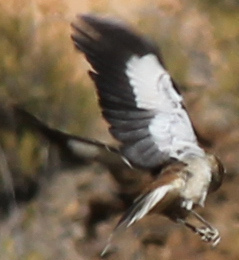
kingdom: Animalia
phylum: Chordata
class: Aves
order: Passeriformes
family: Mimidae
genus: Mimus
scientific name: Mimus dorsalis
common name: Brown-backed mockingbird
